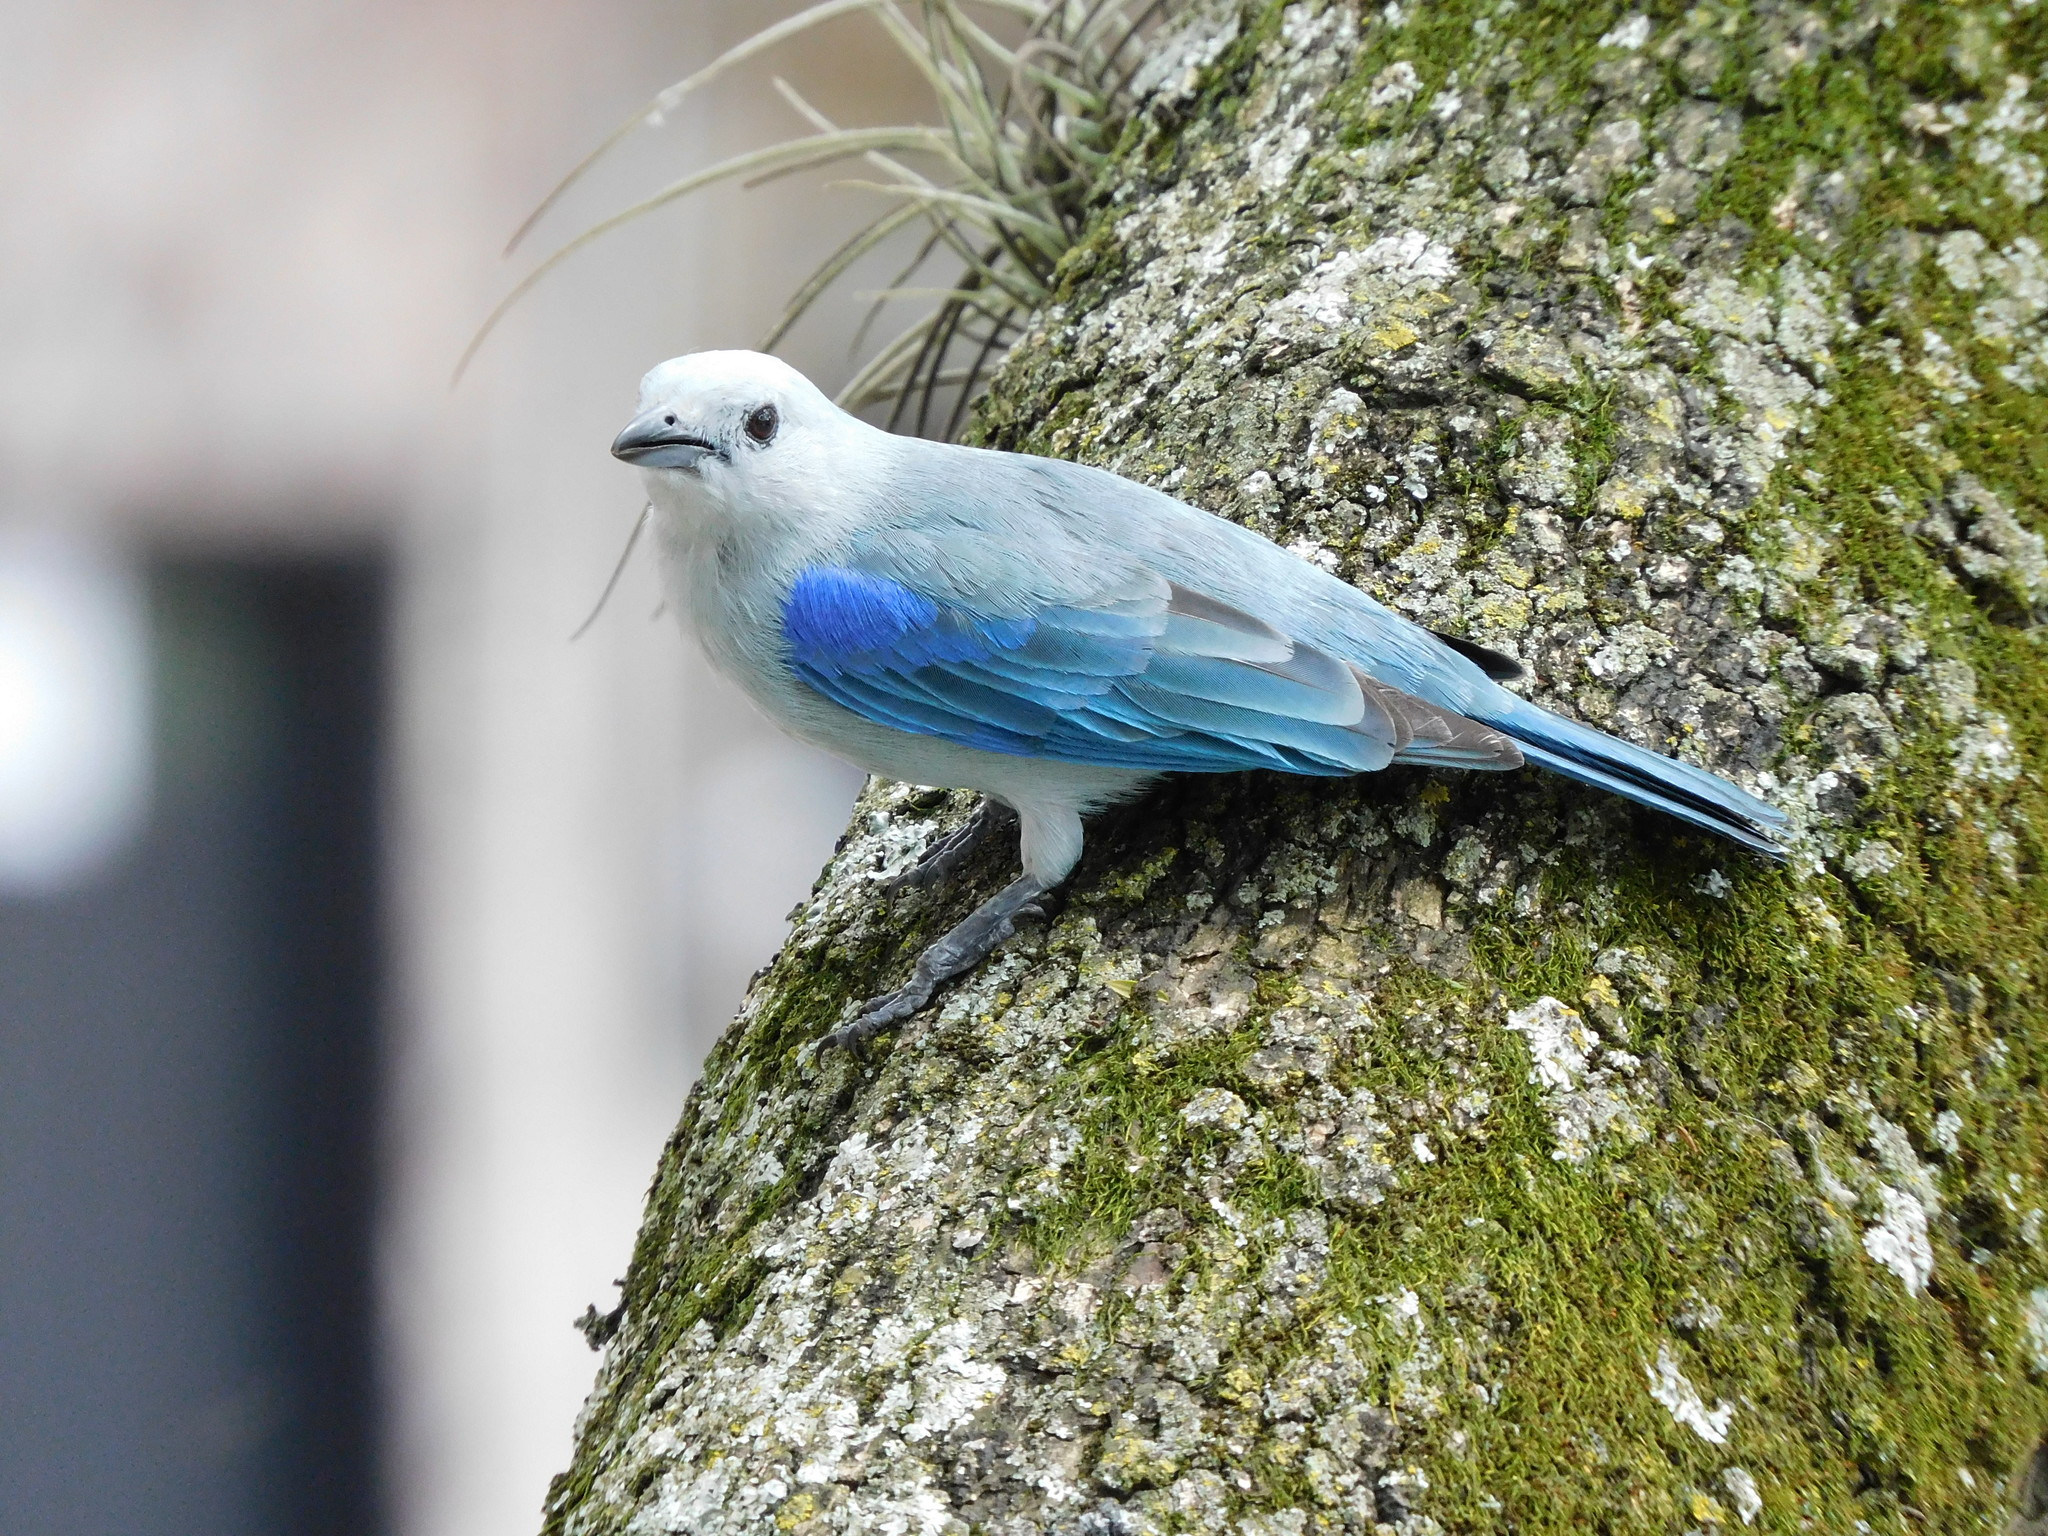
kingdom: Animalia
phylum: Chordata
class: Aves
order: Passeriformes
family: Thraupidae
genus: Thraupis
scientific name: Thraupis episcopus
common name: Blue-grey tanager
